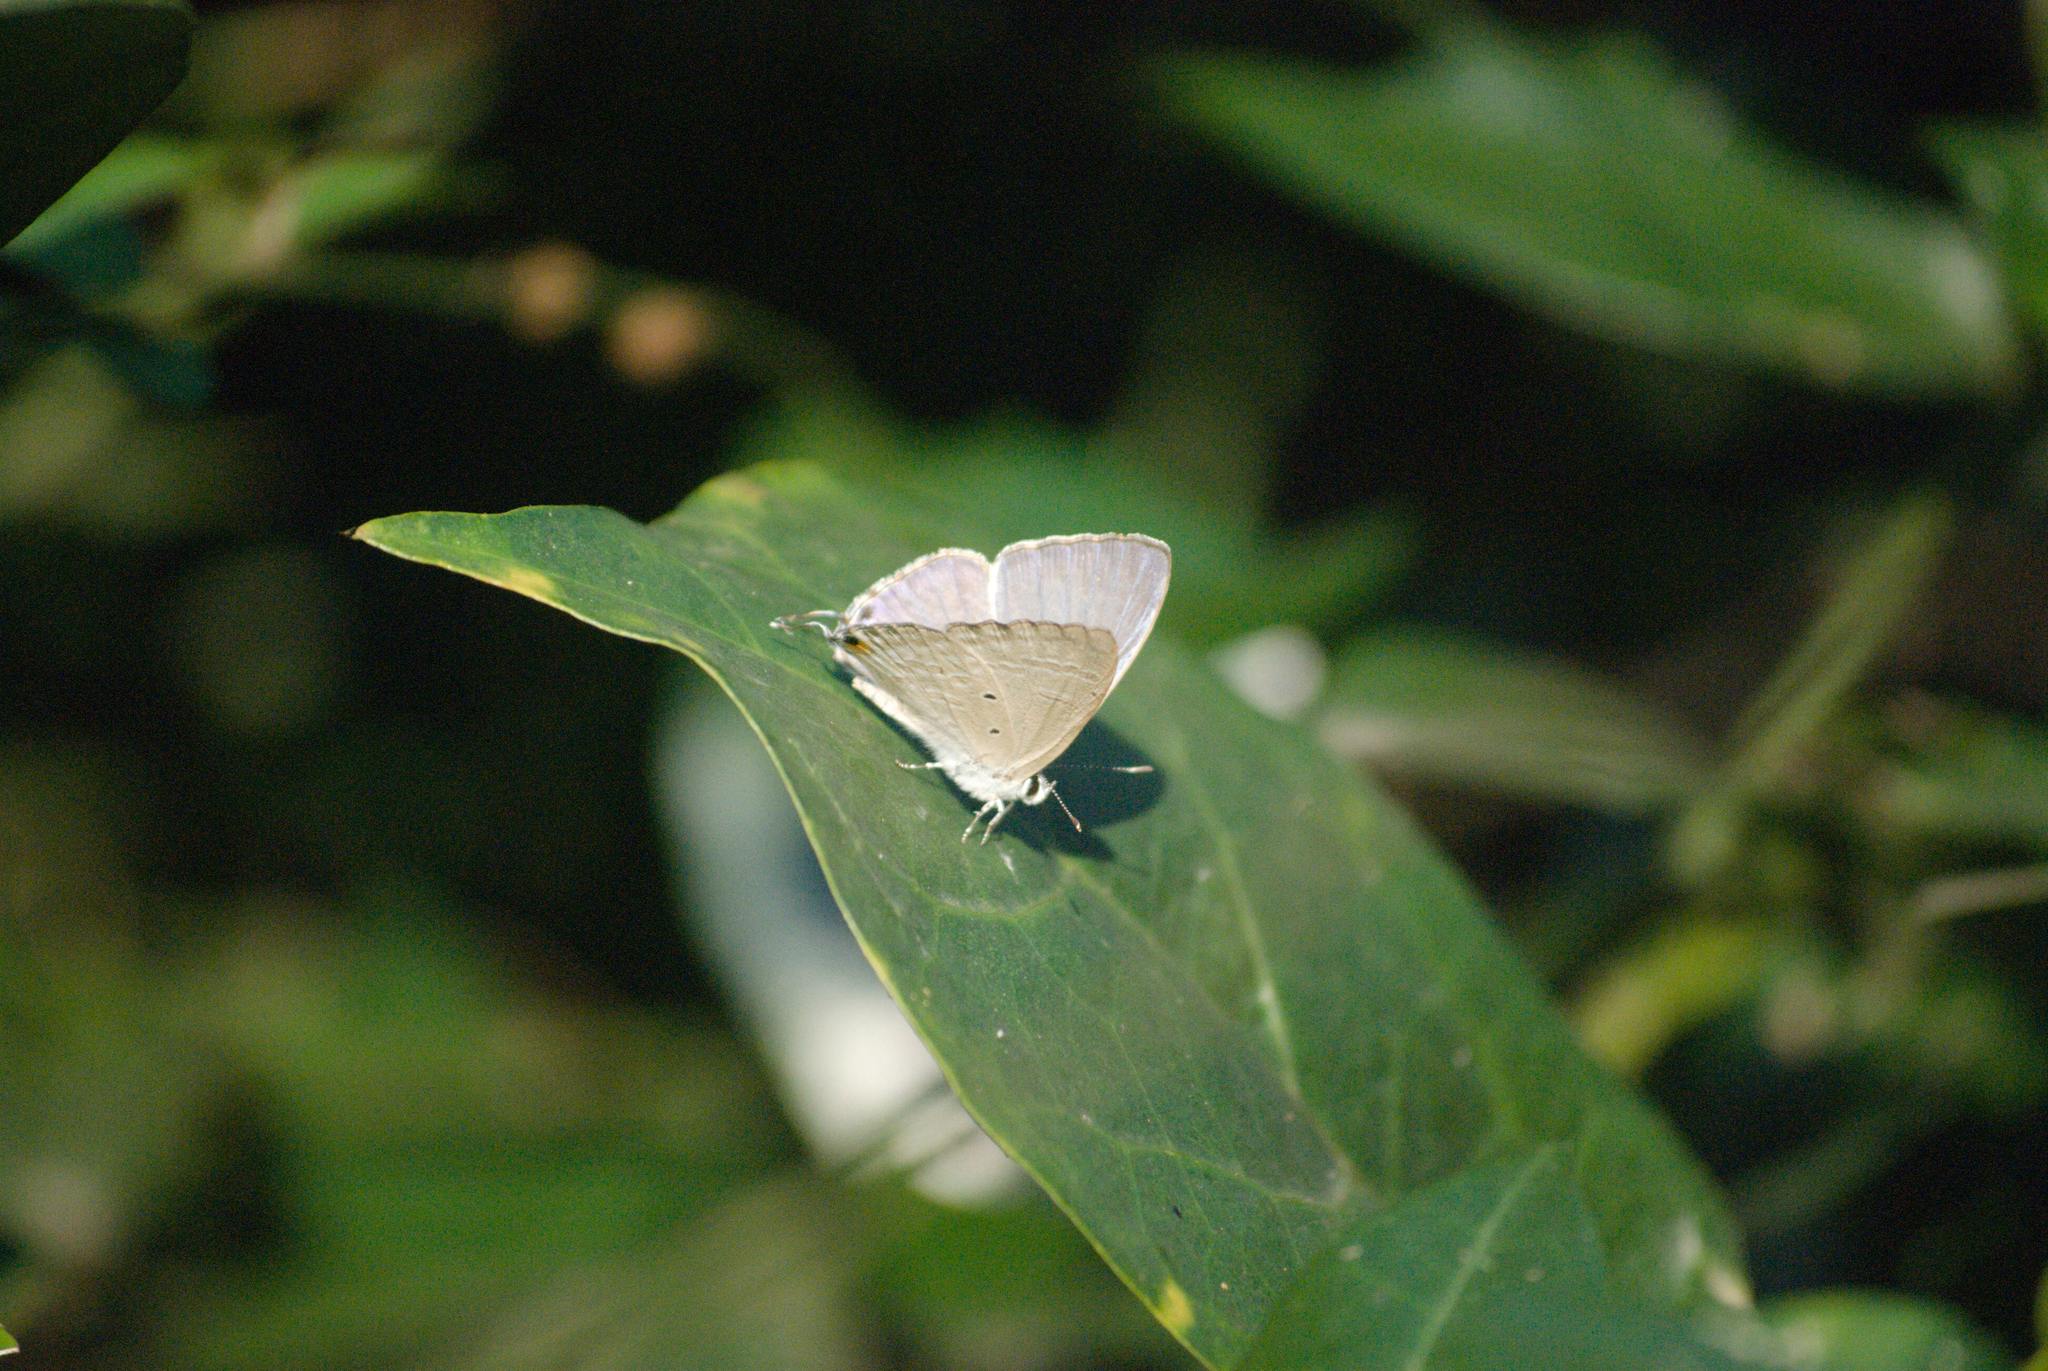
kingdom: Animalia
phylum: Arthropoda
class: Insecta
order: Lepidoptera
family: Lycaenidae
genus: Catochrysops
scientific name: Catochrysops strabo
